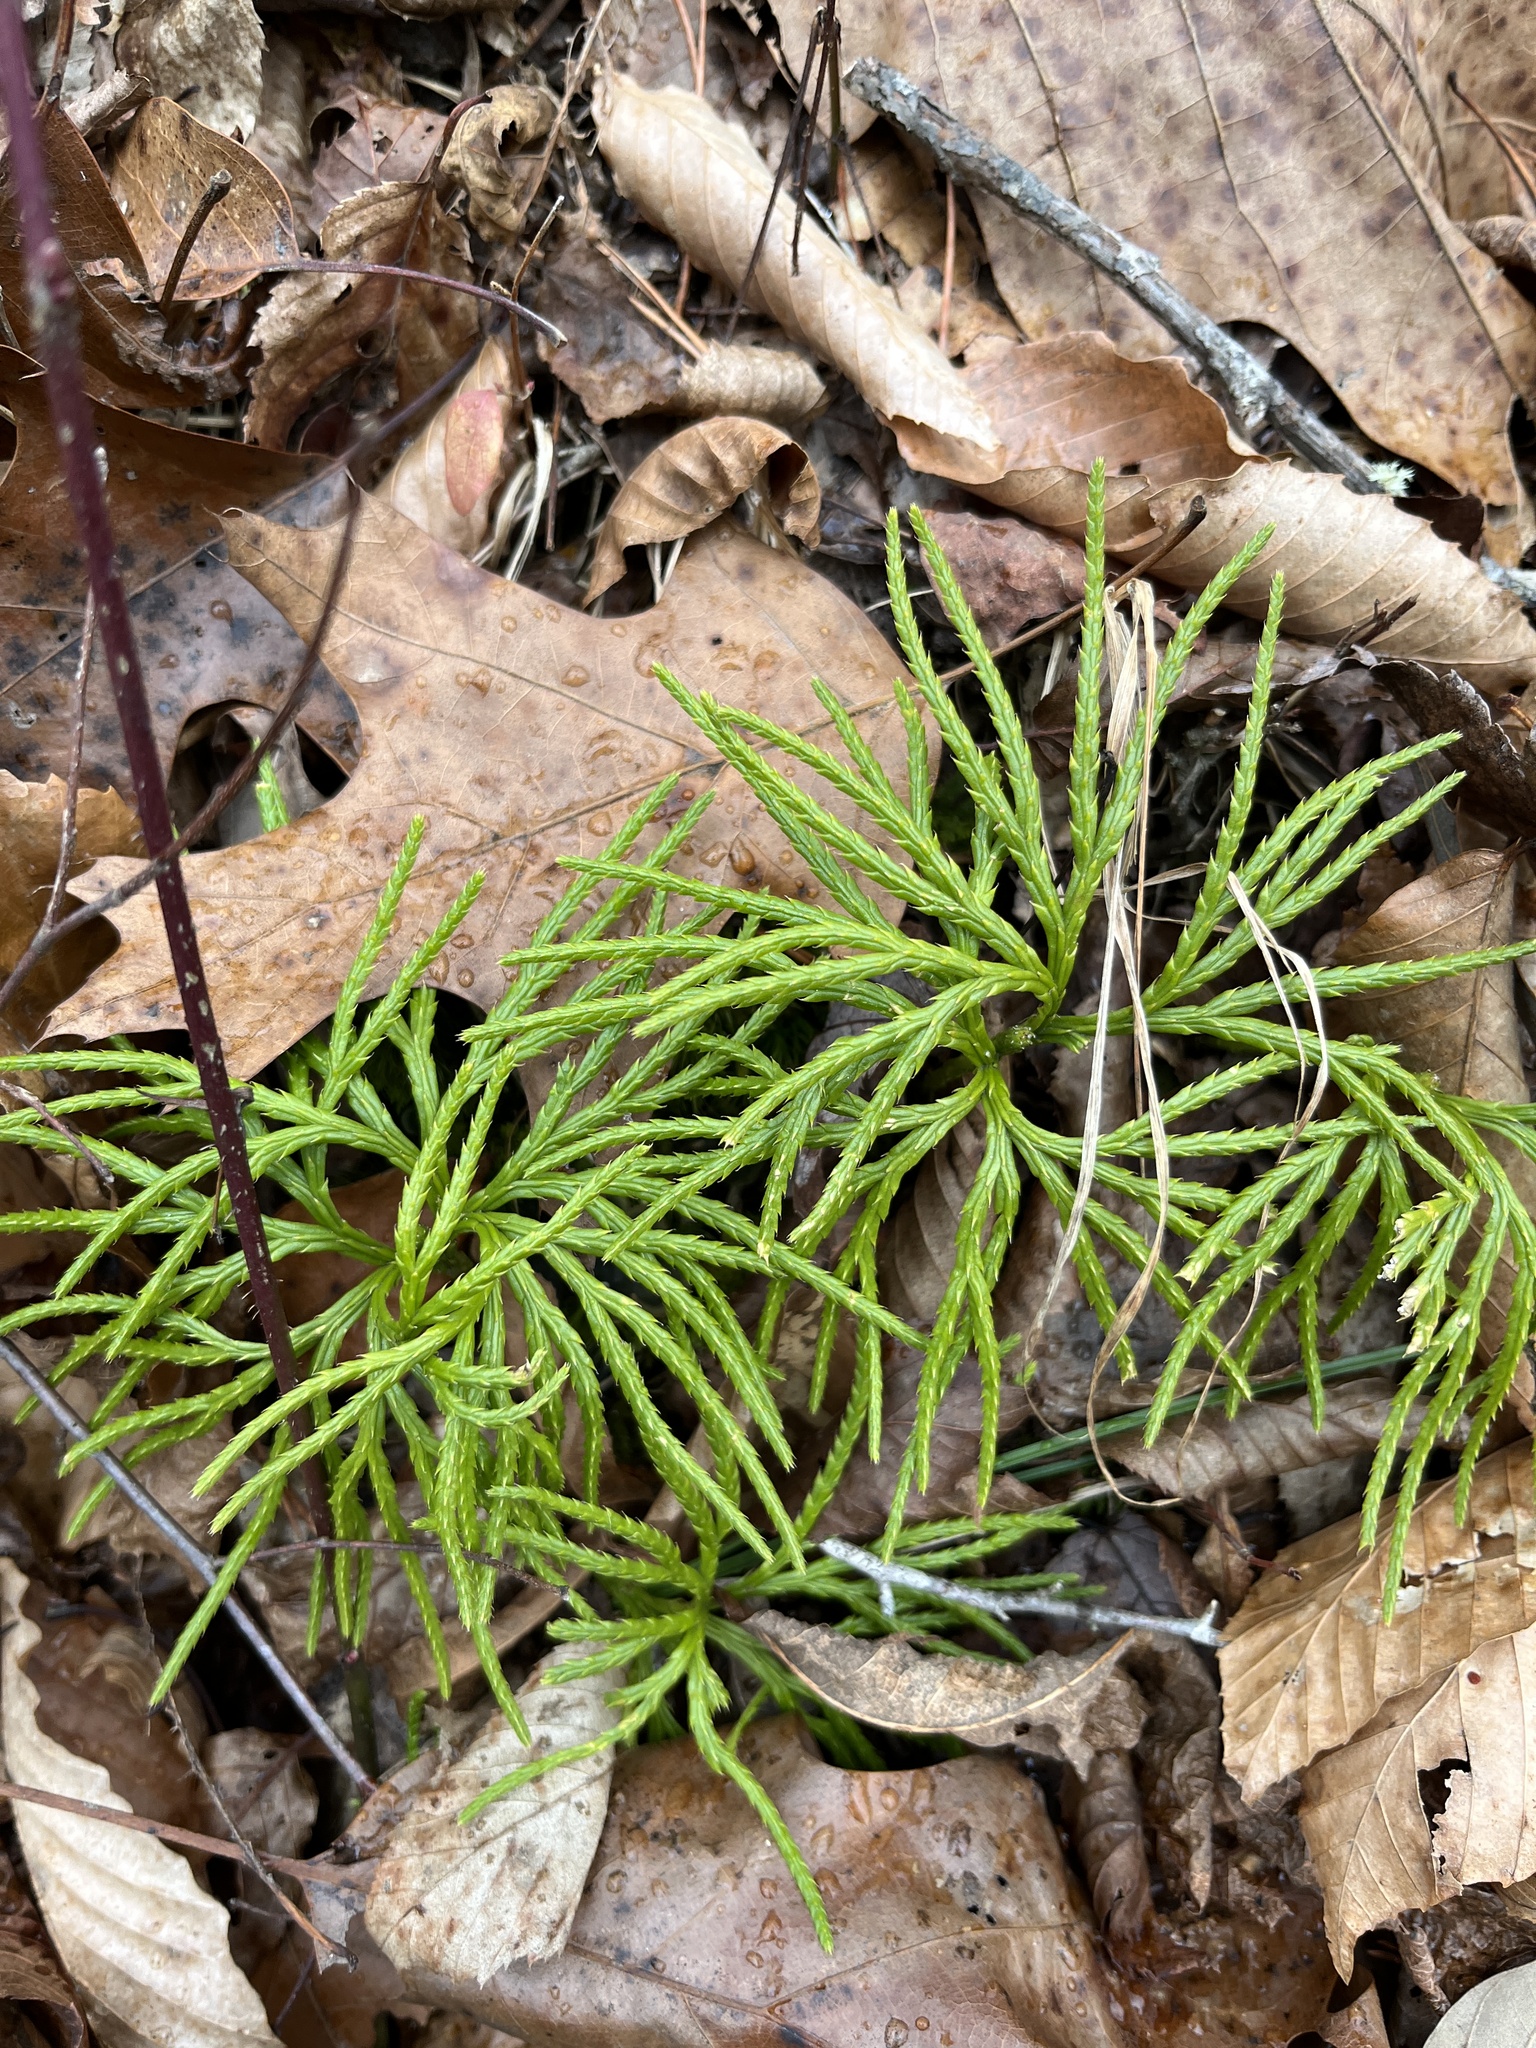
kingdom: Plantae
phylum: Tracheophyta
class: Lycopodiopsida
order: Lycopodiales
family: Lycopodiaceae
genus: Diphasiastrum
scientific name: Diphasiastrum digitatum
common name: Southern running-pine
